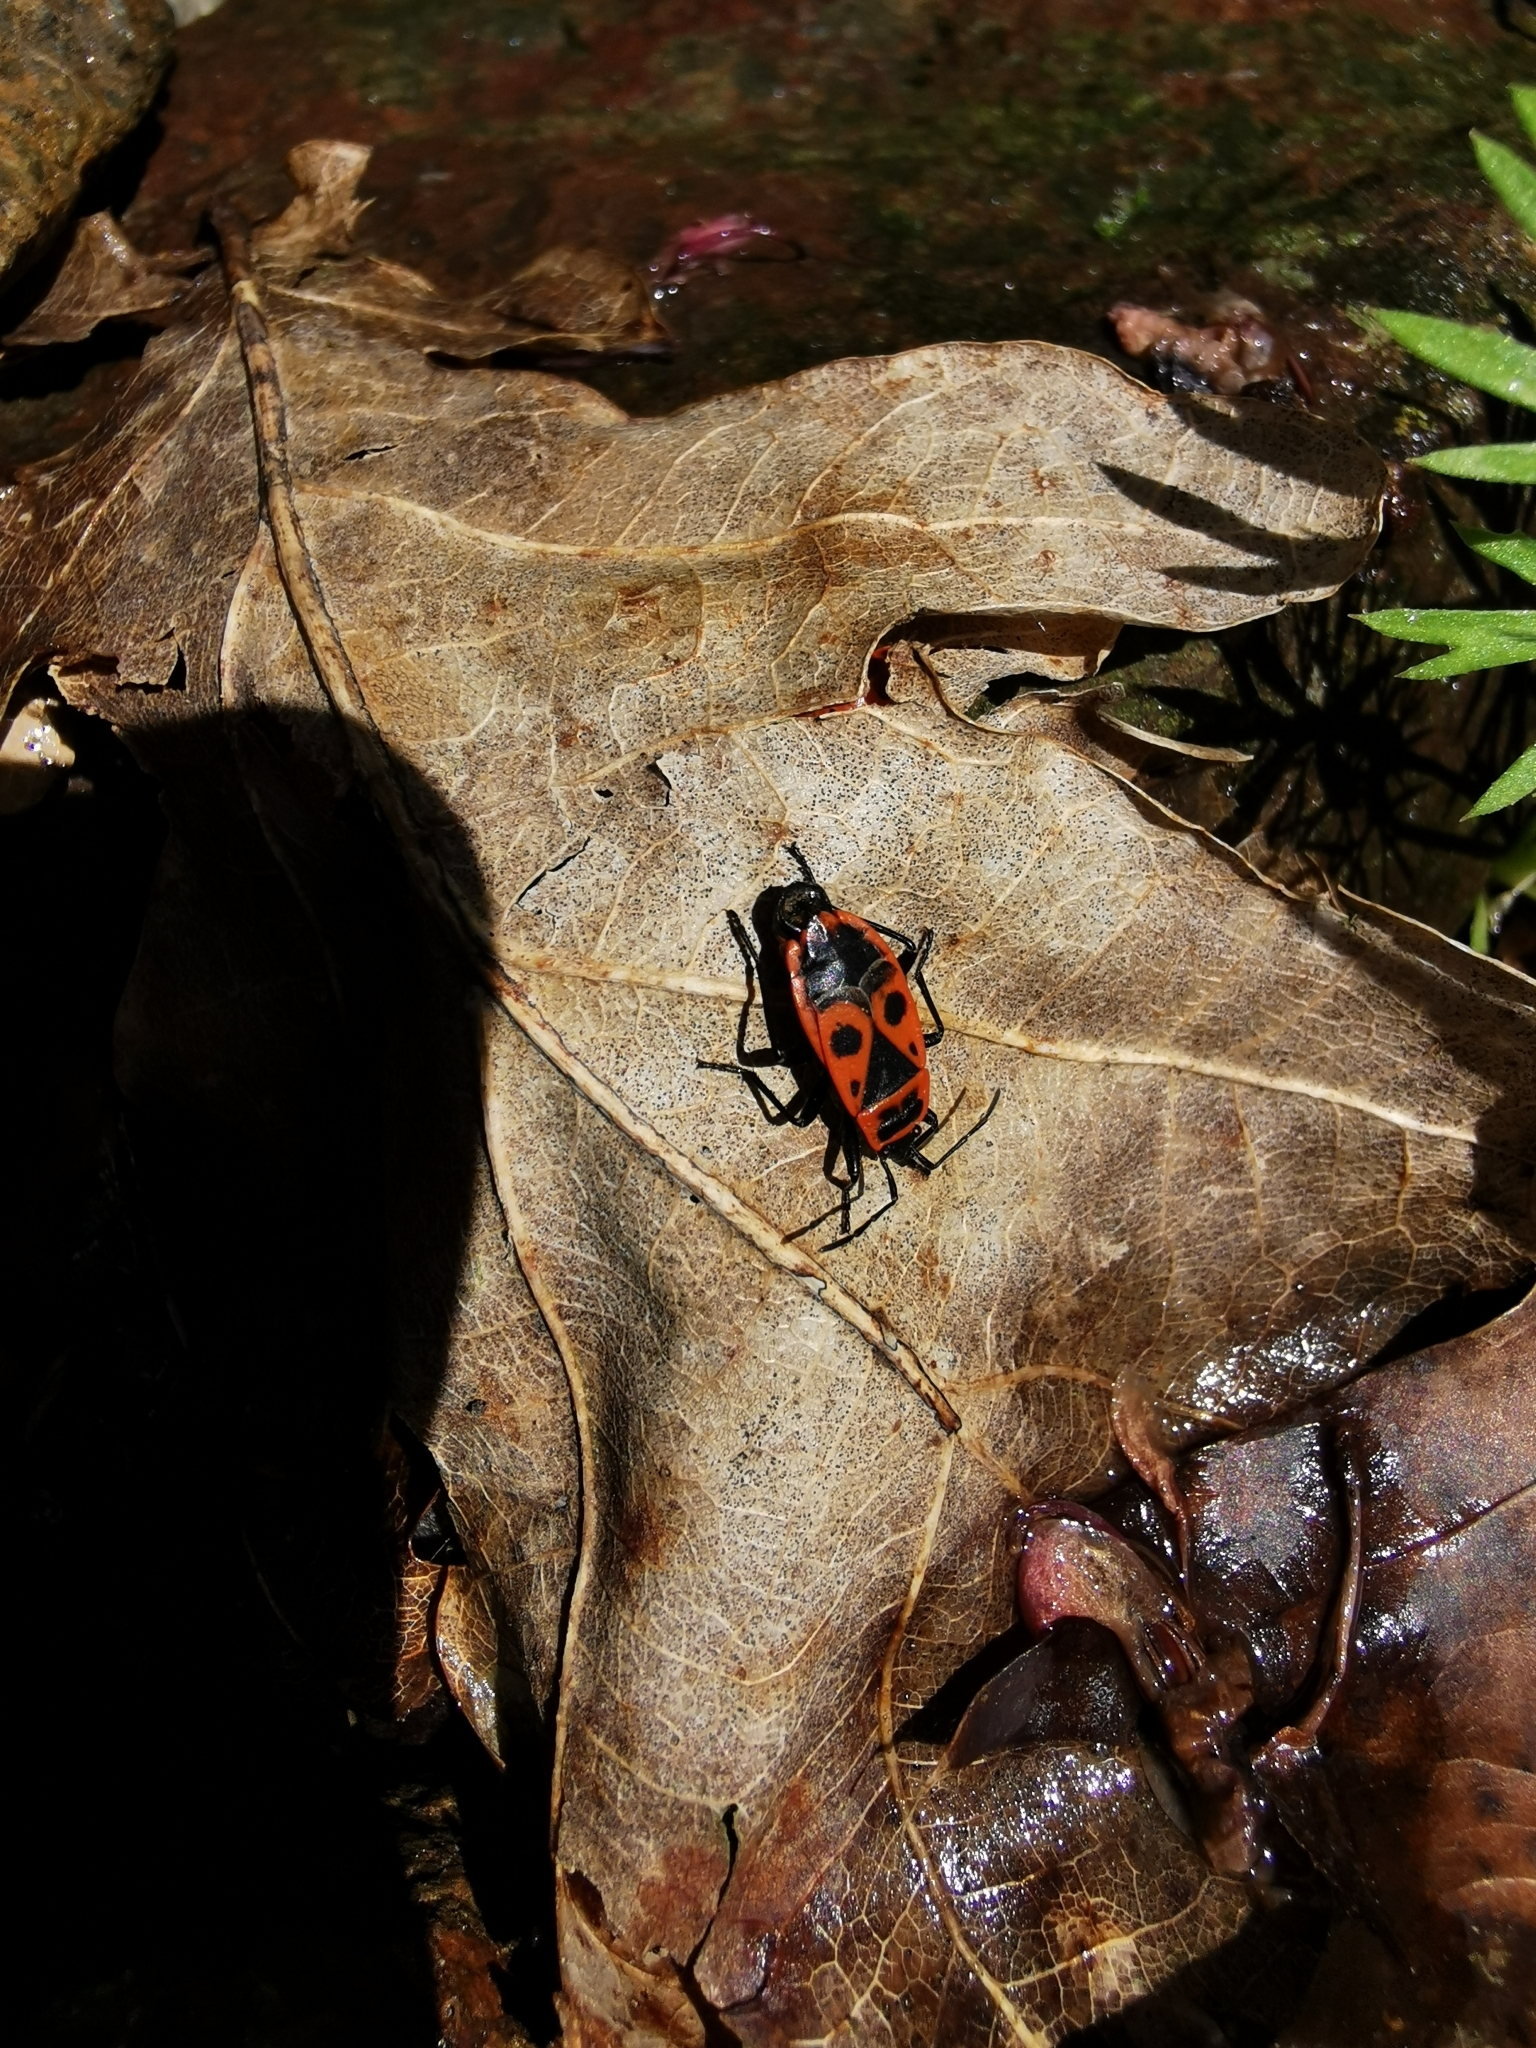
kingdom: Animalia
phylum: Arthropoda
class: Insecta
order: Hemiptera
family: Pyrrhocoridae
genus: Pyrrhocoris
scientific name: Pyrrhocoris apterus
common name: Firebug
